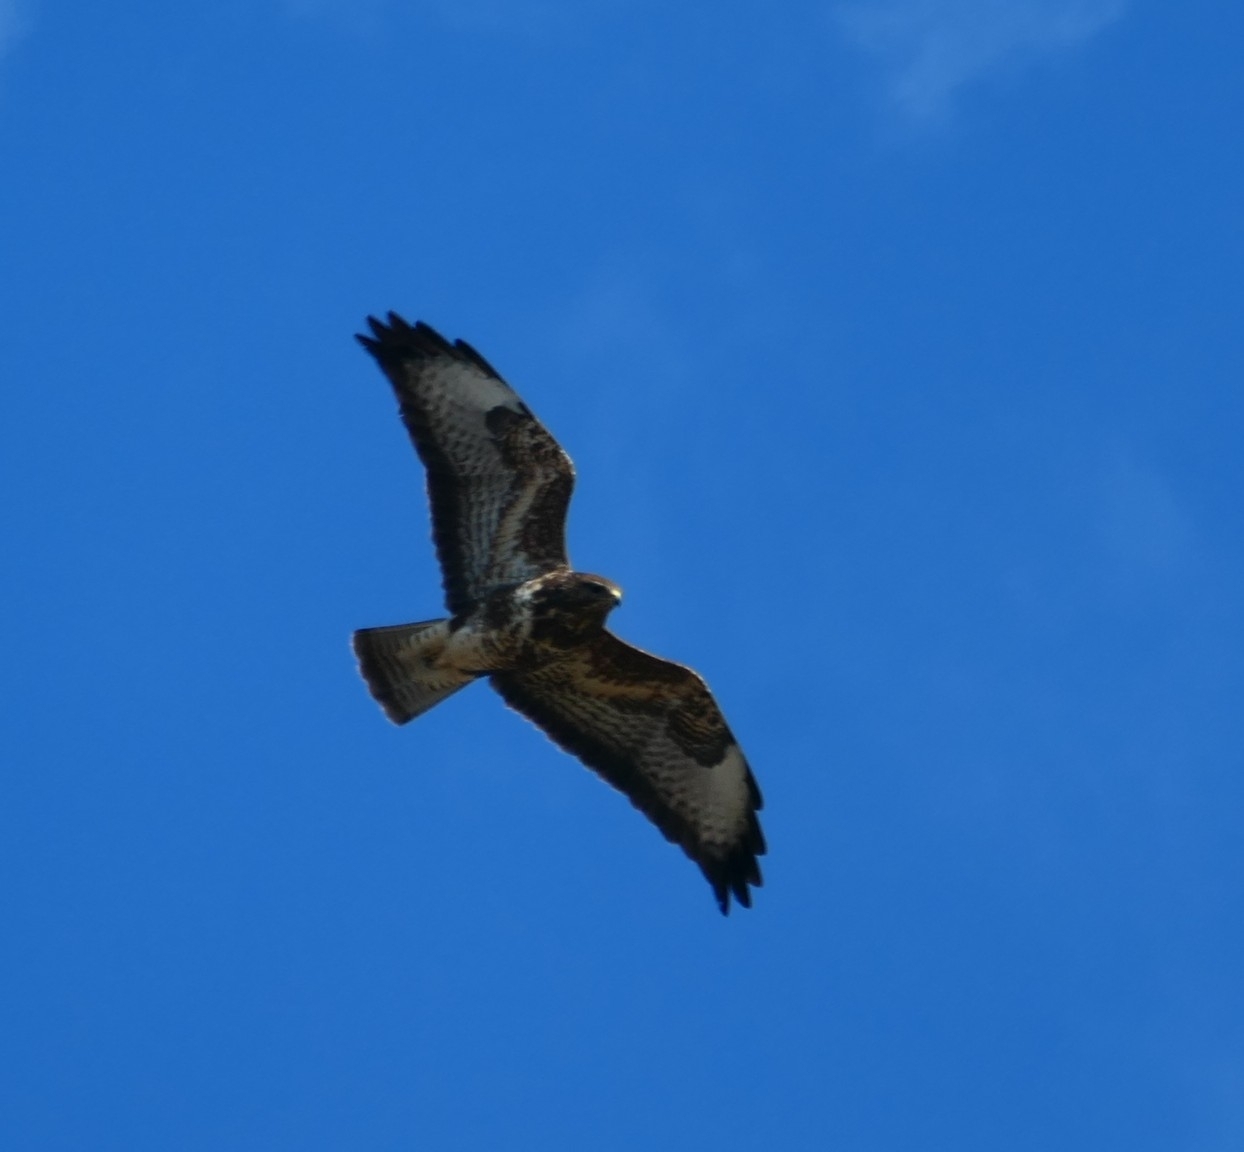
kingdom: Animalia
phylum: Chordata
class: Aves
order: Accipitriformes
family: Accipitridae
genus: Buteo
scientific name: Buteo buteo
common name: Common buzzard
